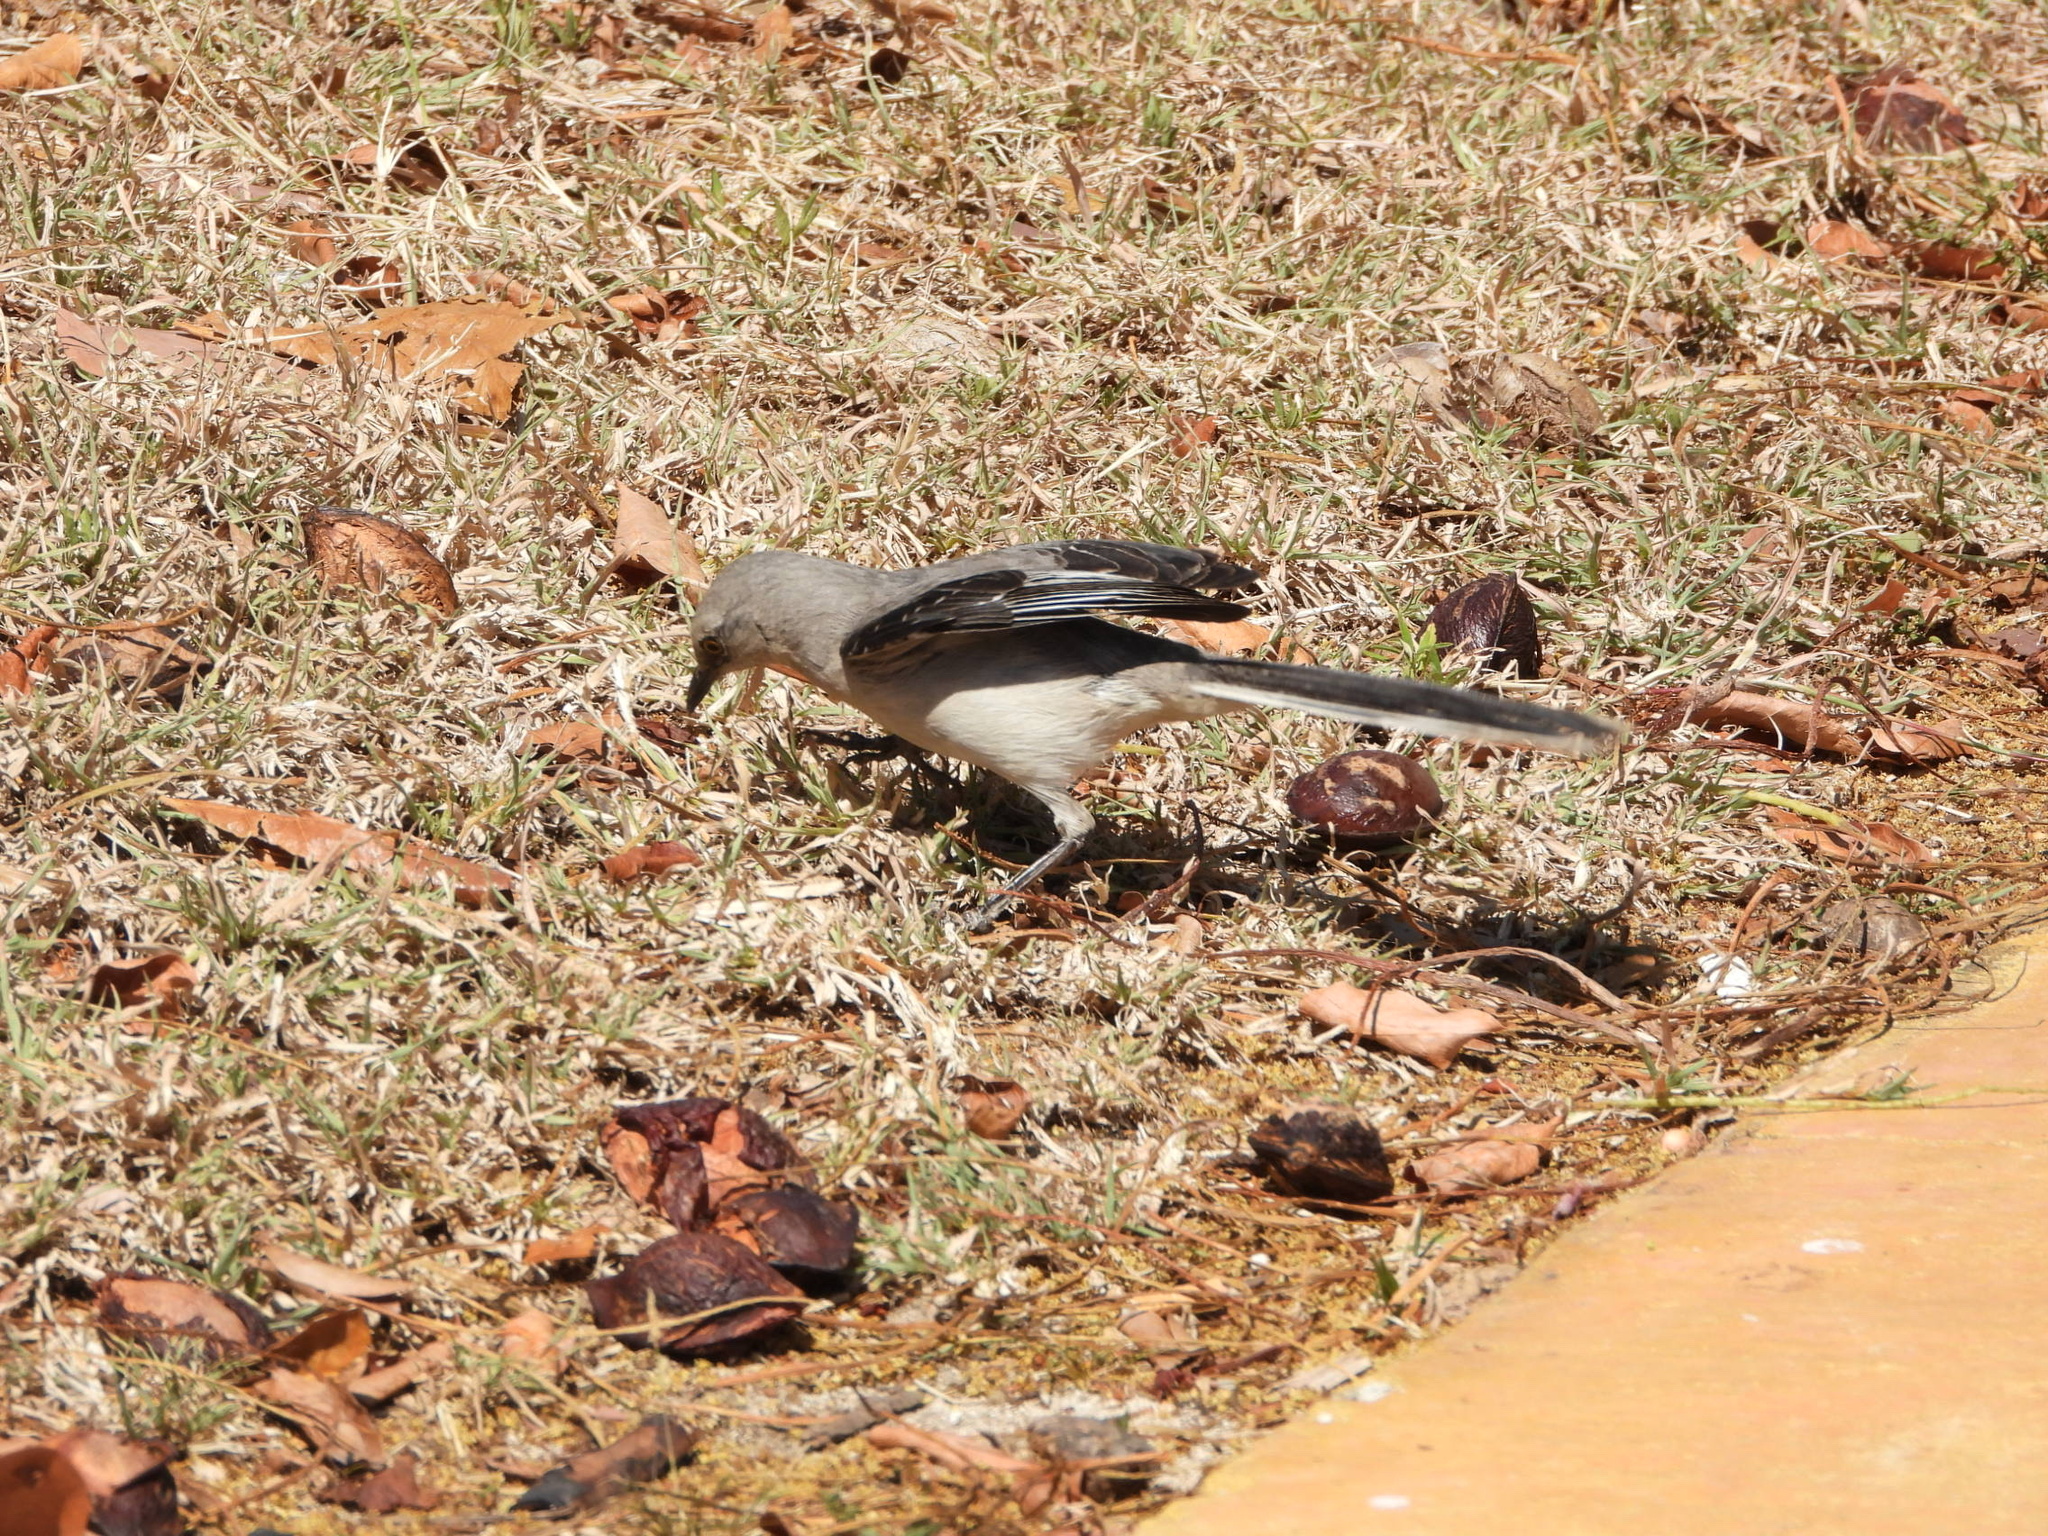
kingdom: Animalia
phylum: Chordata
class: Aves
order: Passeriformes
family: Mimidae
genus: Mimus
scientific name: Mimus gilvus
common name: Tropical mockingbird
